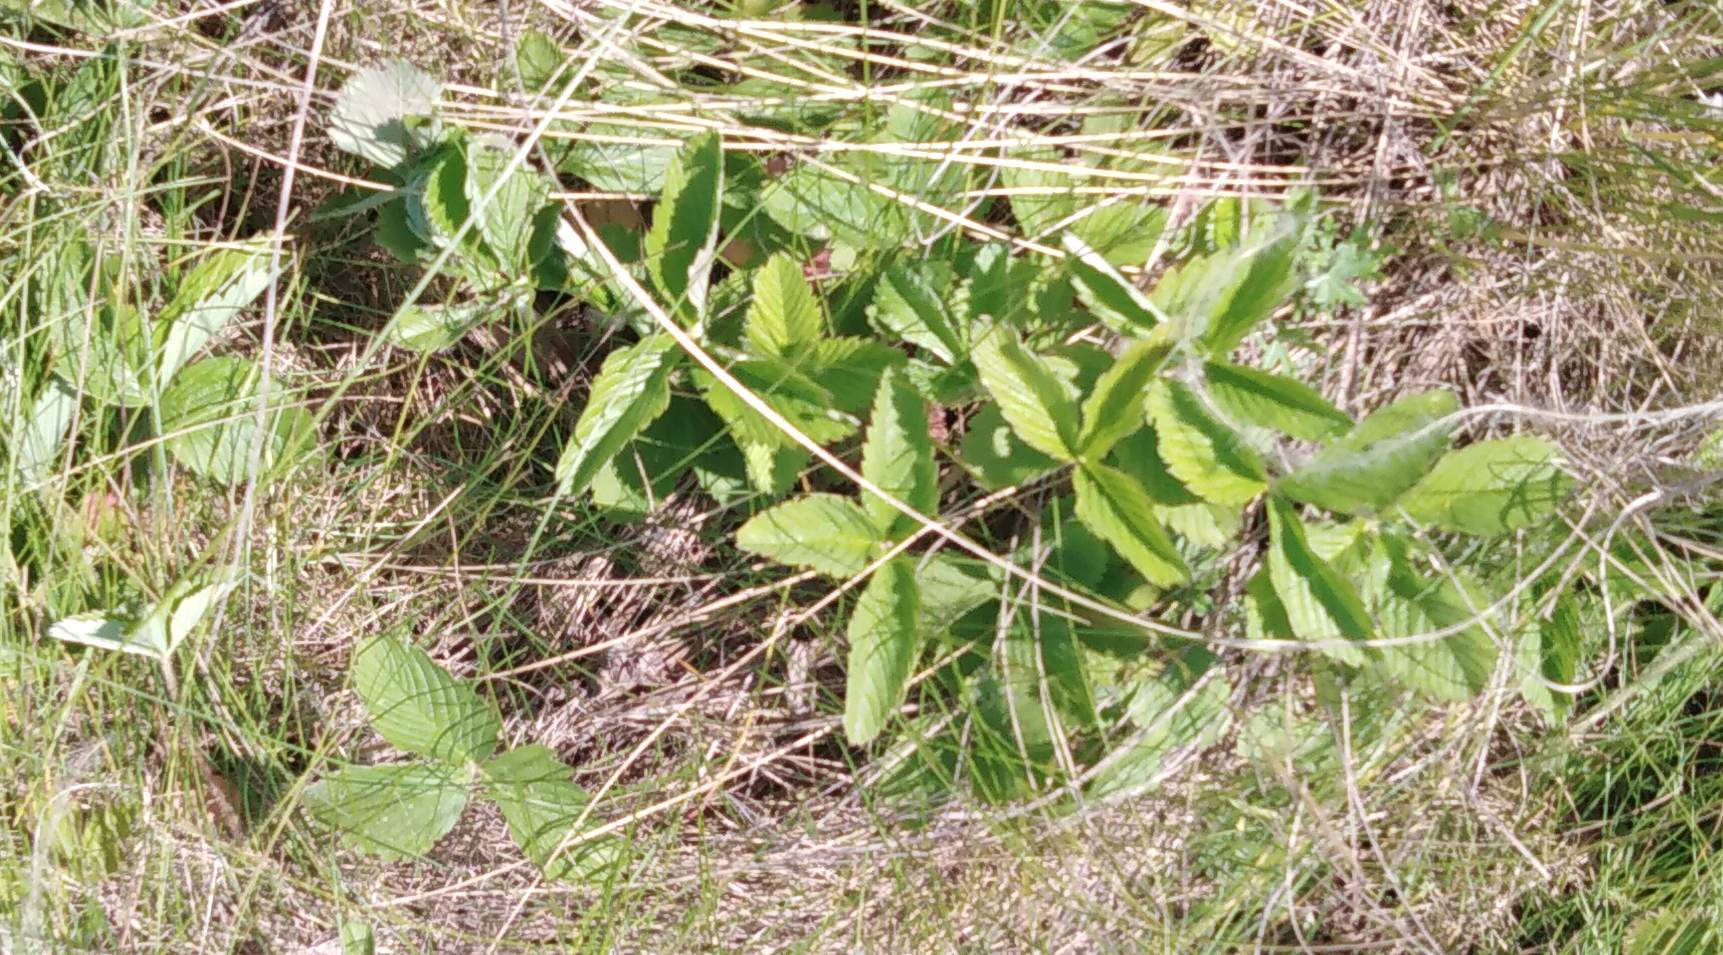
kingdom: Plantae
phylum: Tracheophyta
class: Magnoliopsida
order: Rosales
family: Rosaceae
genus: Fragaria
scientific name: Fragaria viridis
